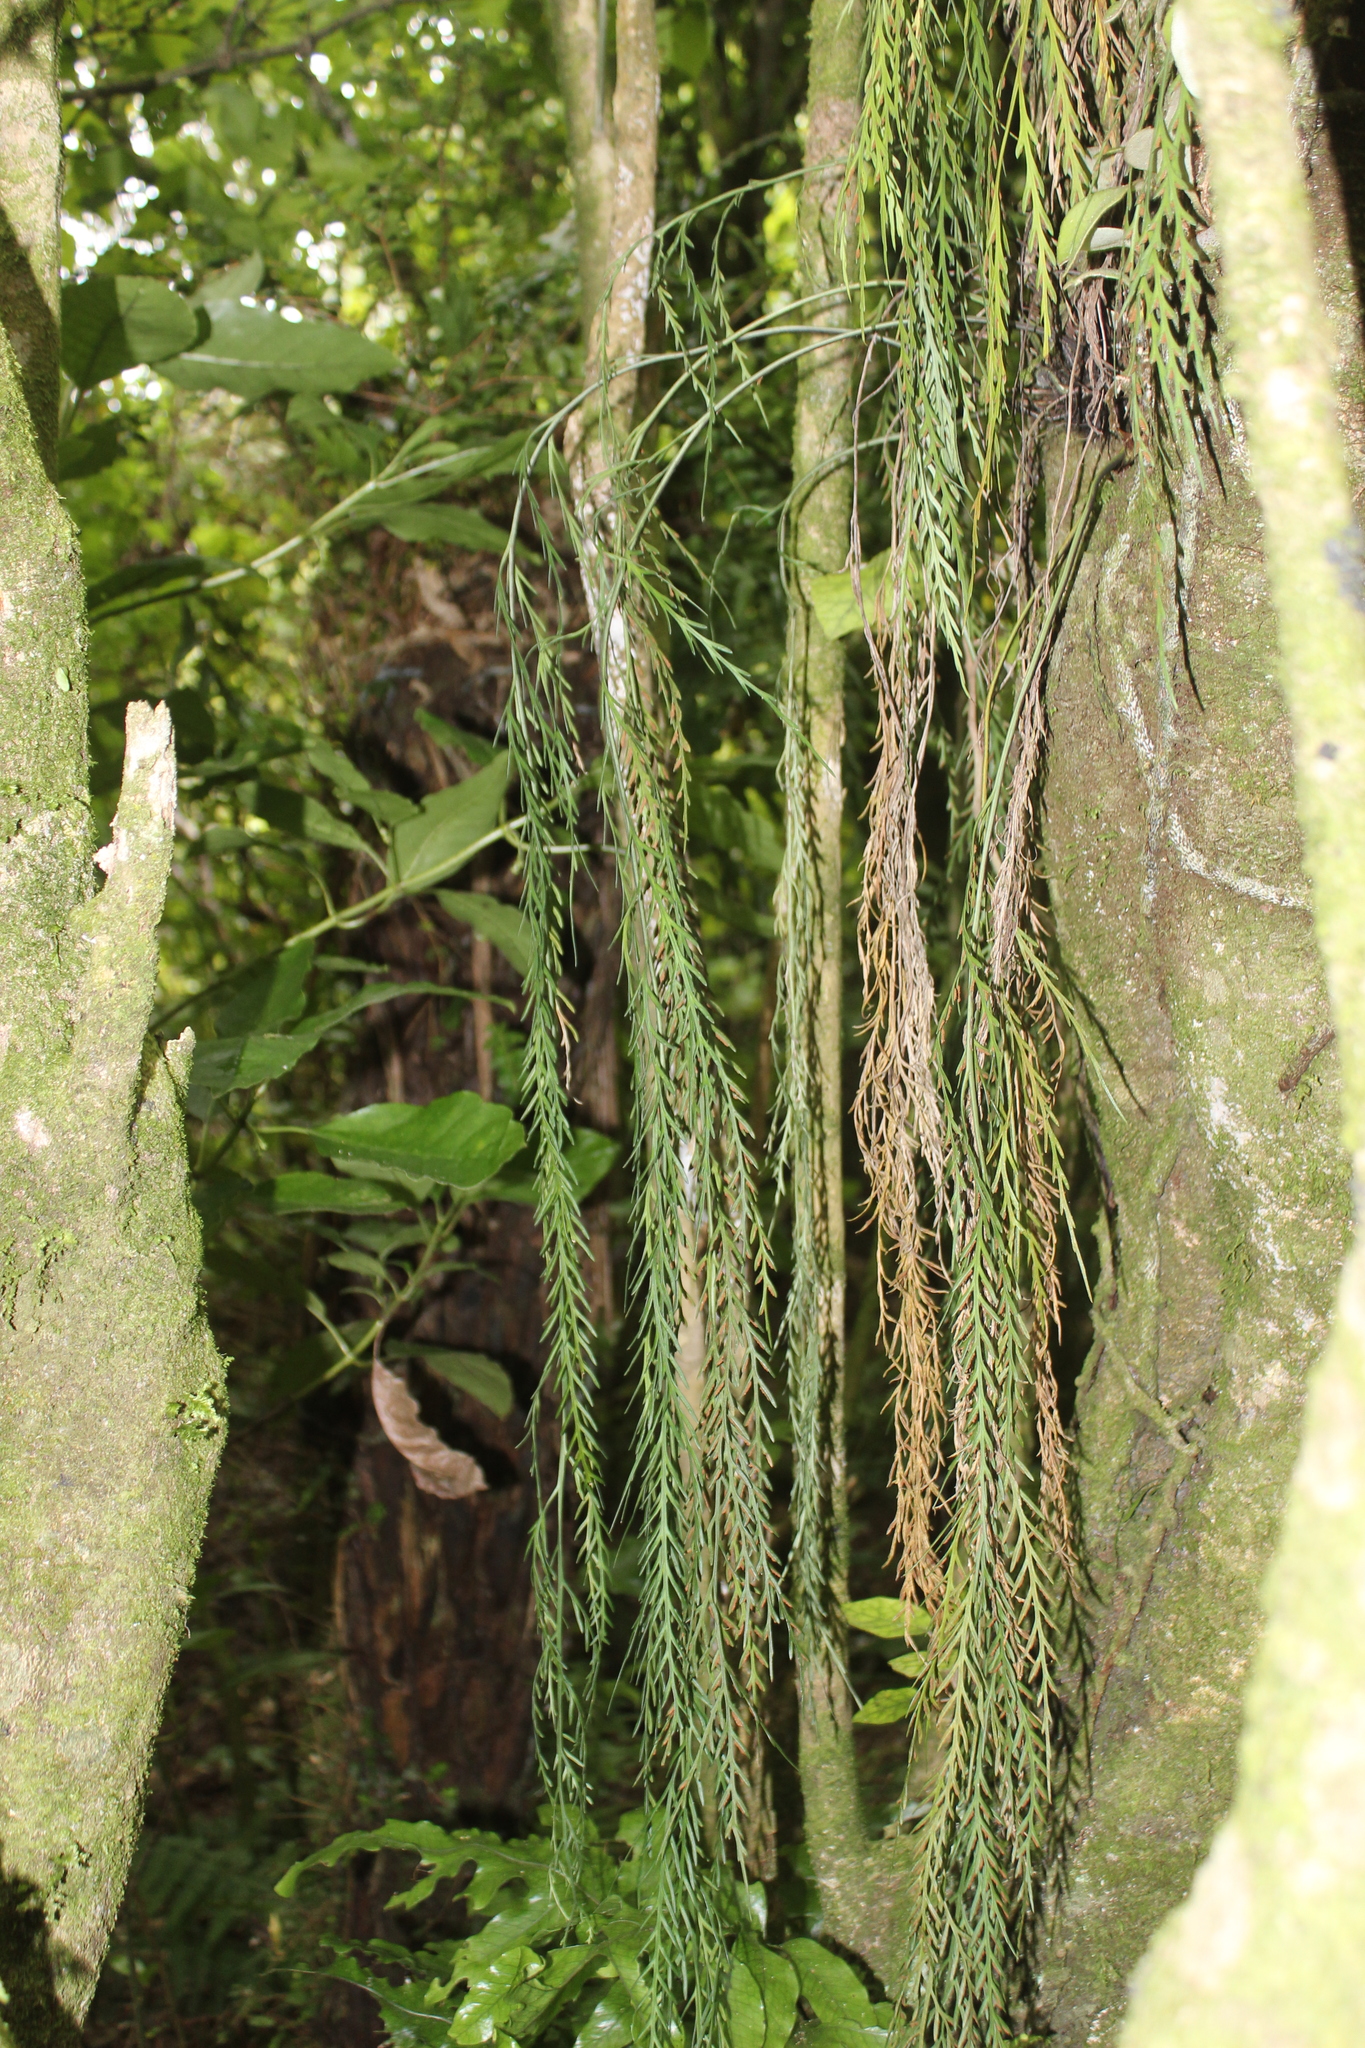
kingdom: Plantae
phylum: Tracheophyta
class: Polypodiopsida
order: Polypodiales
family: Aspleniaceae
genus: Asplenium
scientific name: Asplenium flaccidum
